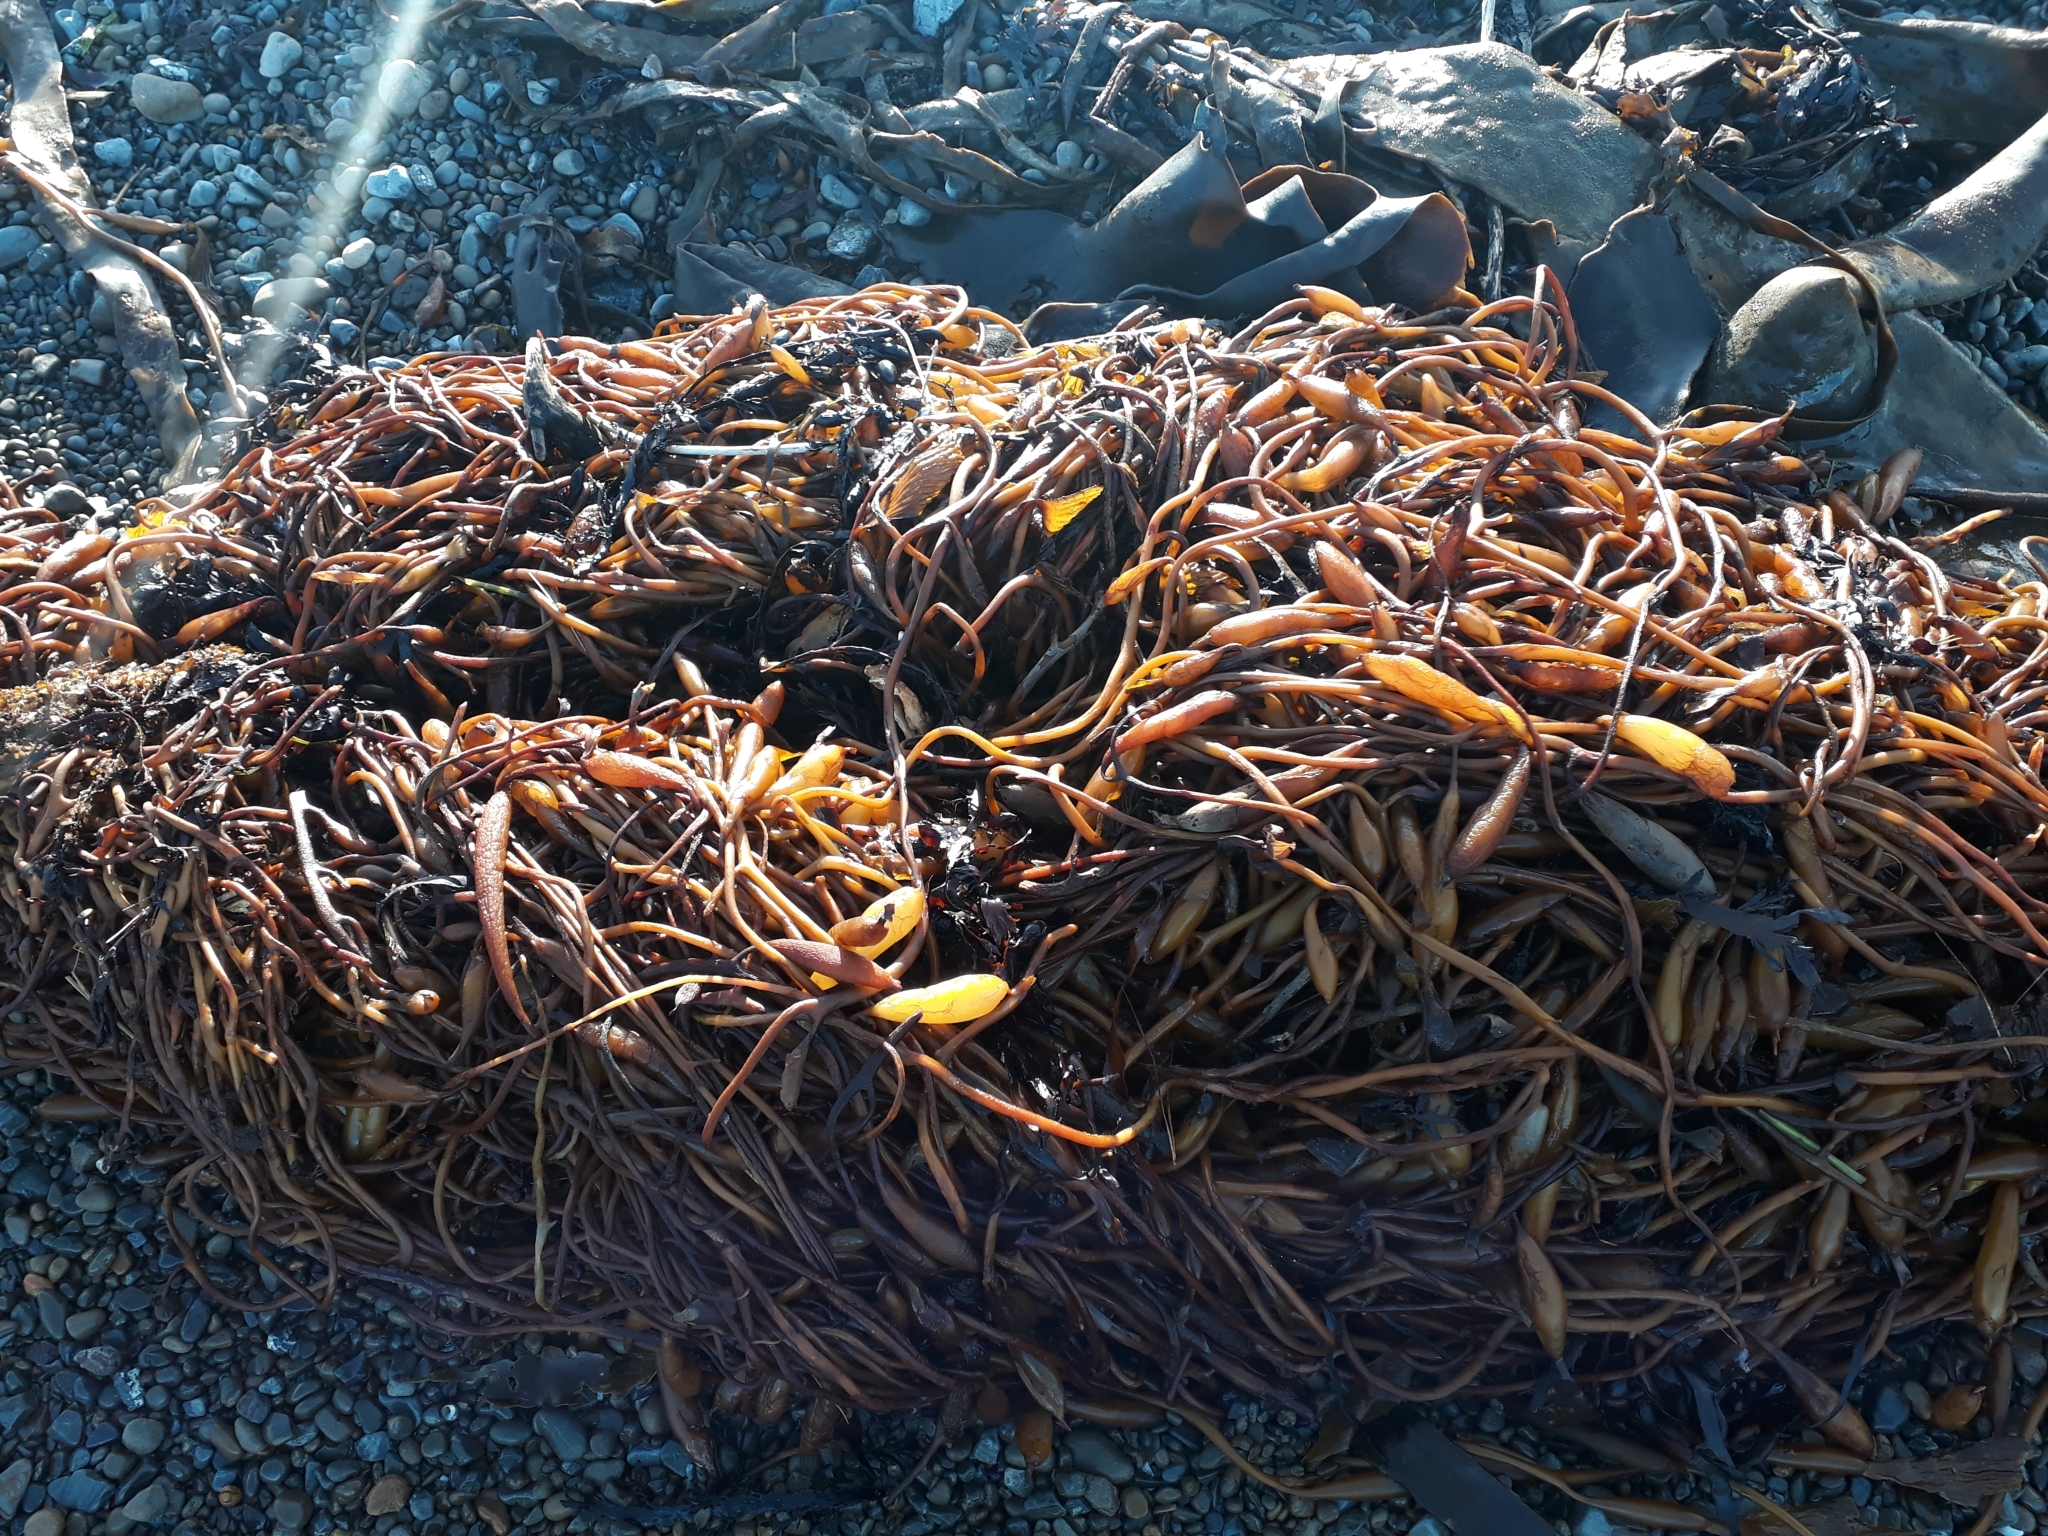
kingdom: Chromista
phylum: Ochrophyta
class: Phaeophyceae
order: Laminariales
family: Laminariaceae
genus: Macrocystis
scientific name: Macrocystis pyrifera
